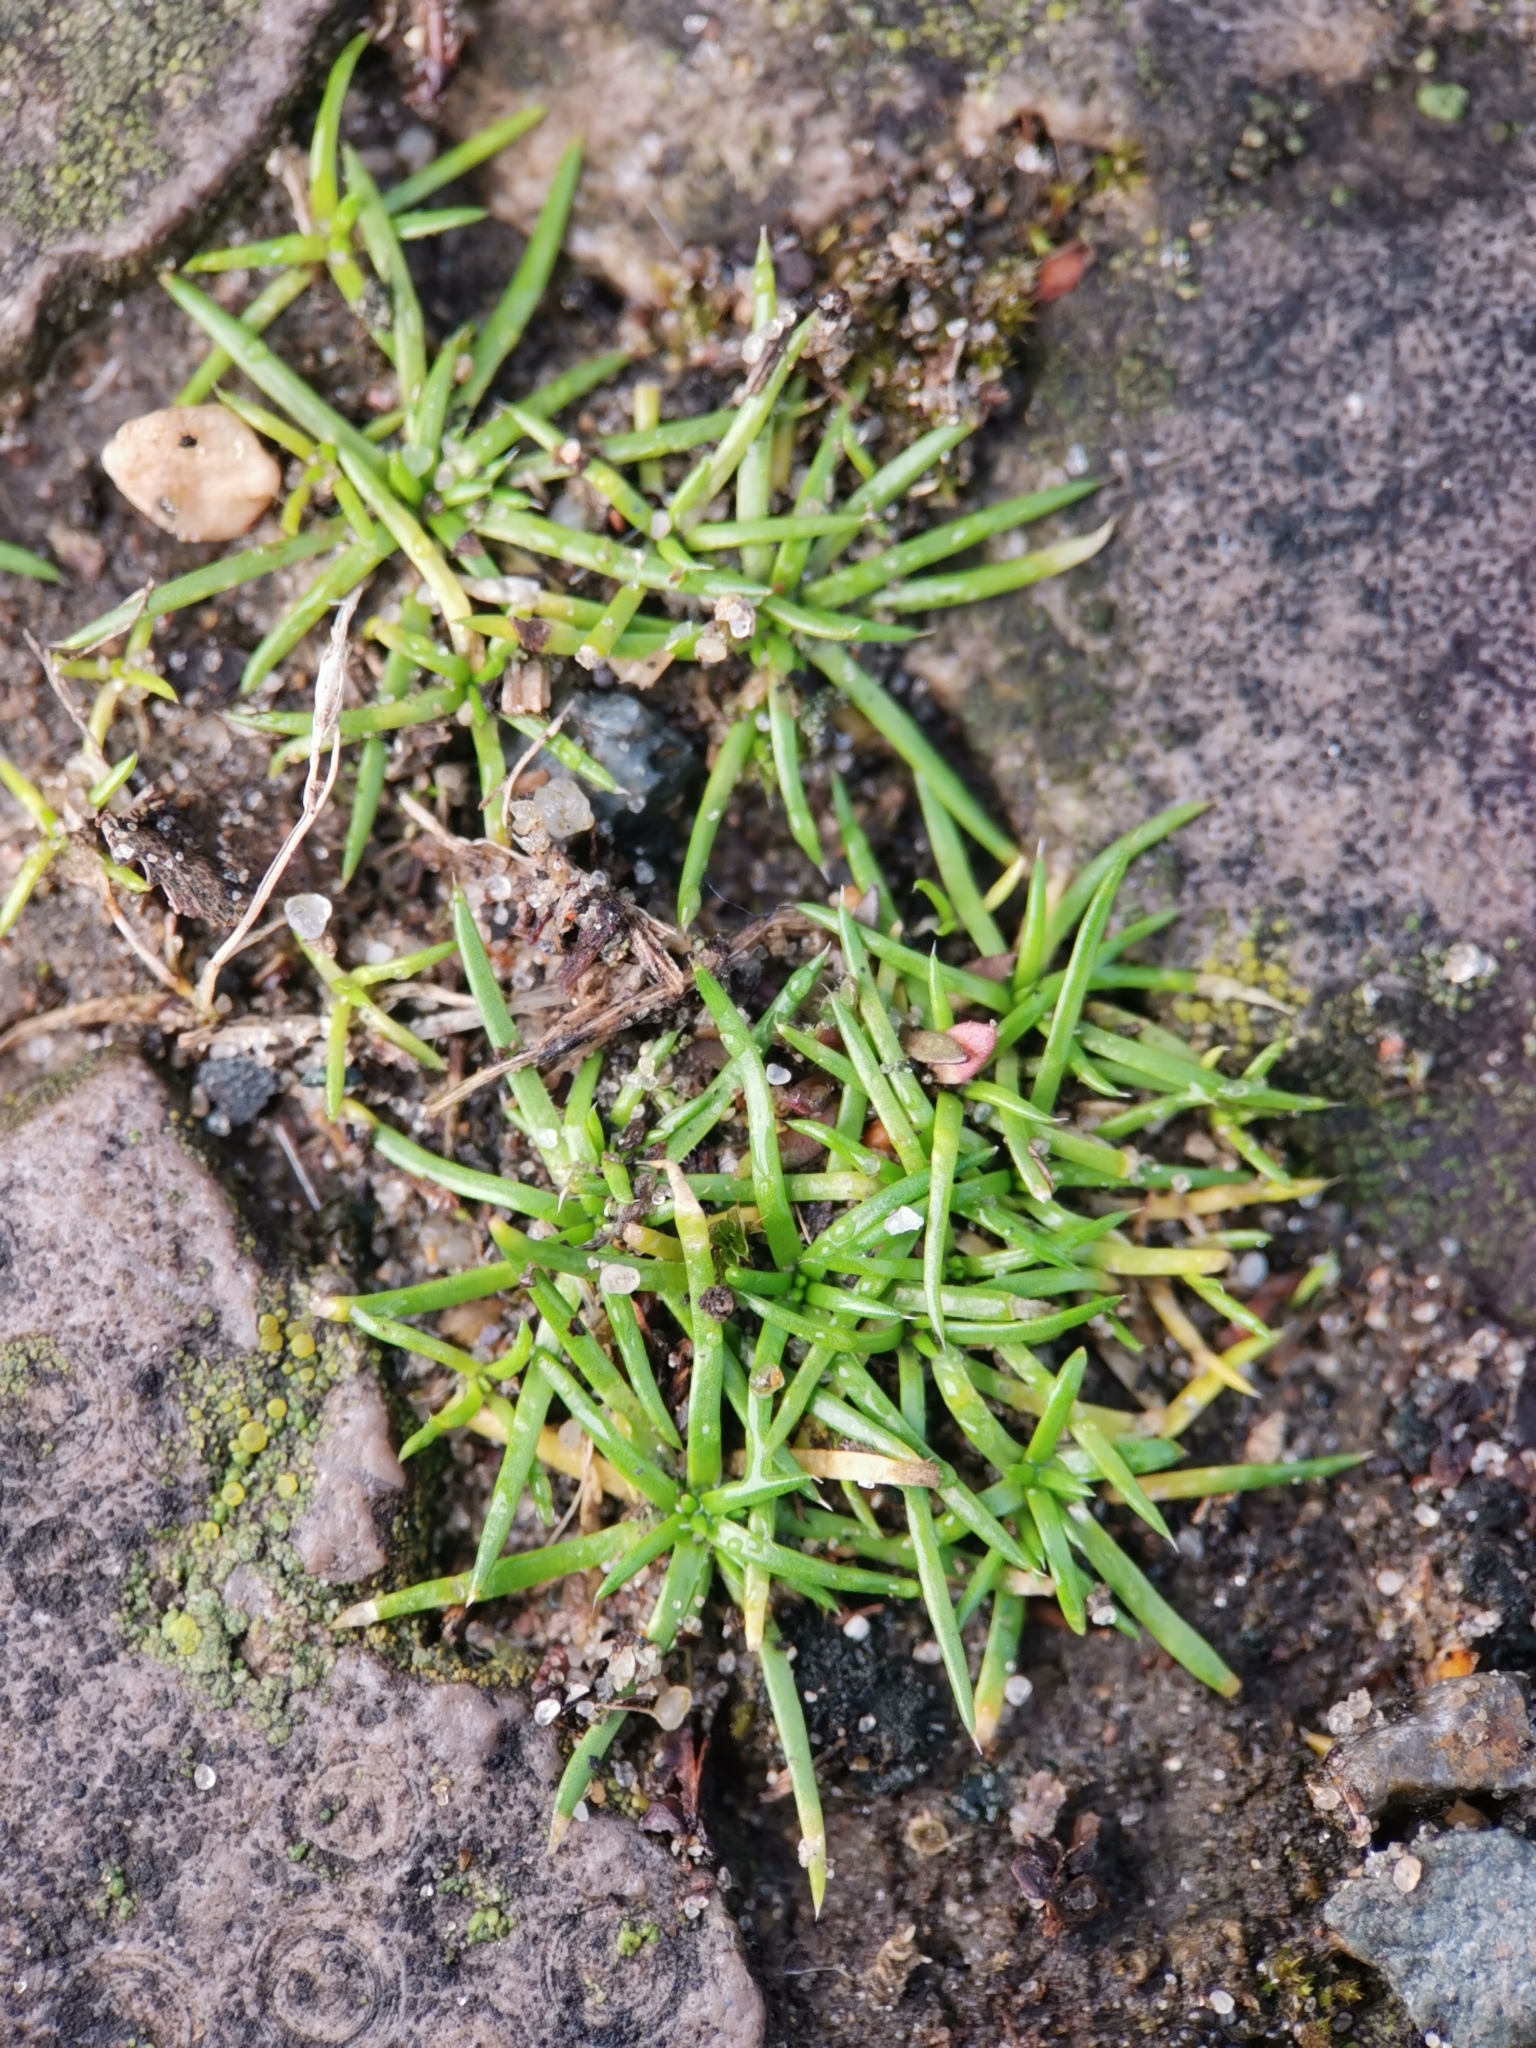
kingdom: Plantae
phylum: Tracheophyta
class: Magnoliopsida
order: Caryophyllales
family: Caryophyllaceae
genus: Sagina
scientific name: Sagina procumbens
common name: Procumbent pearlwort
